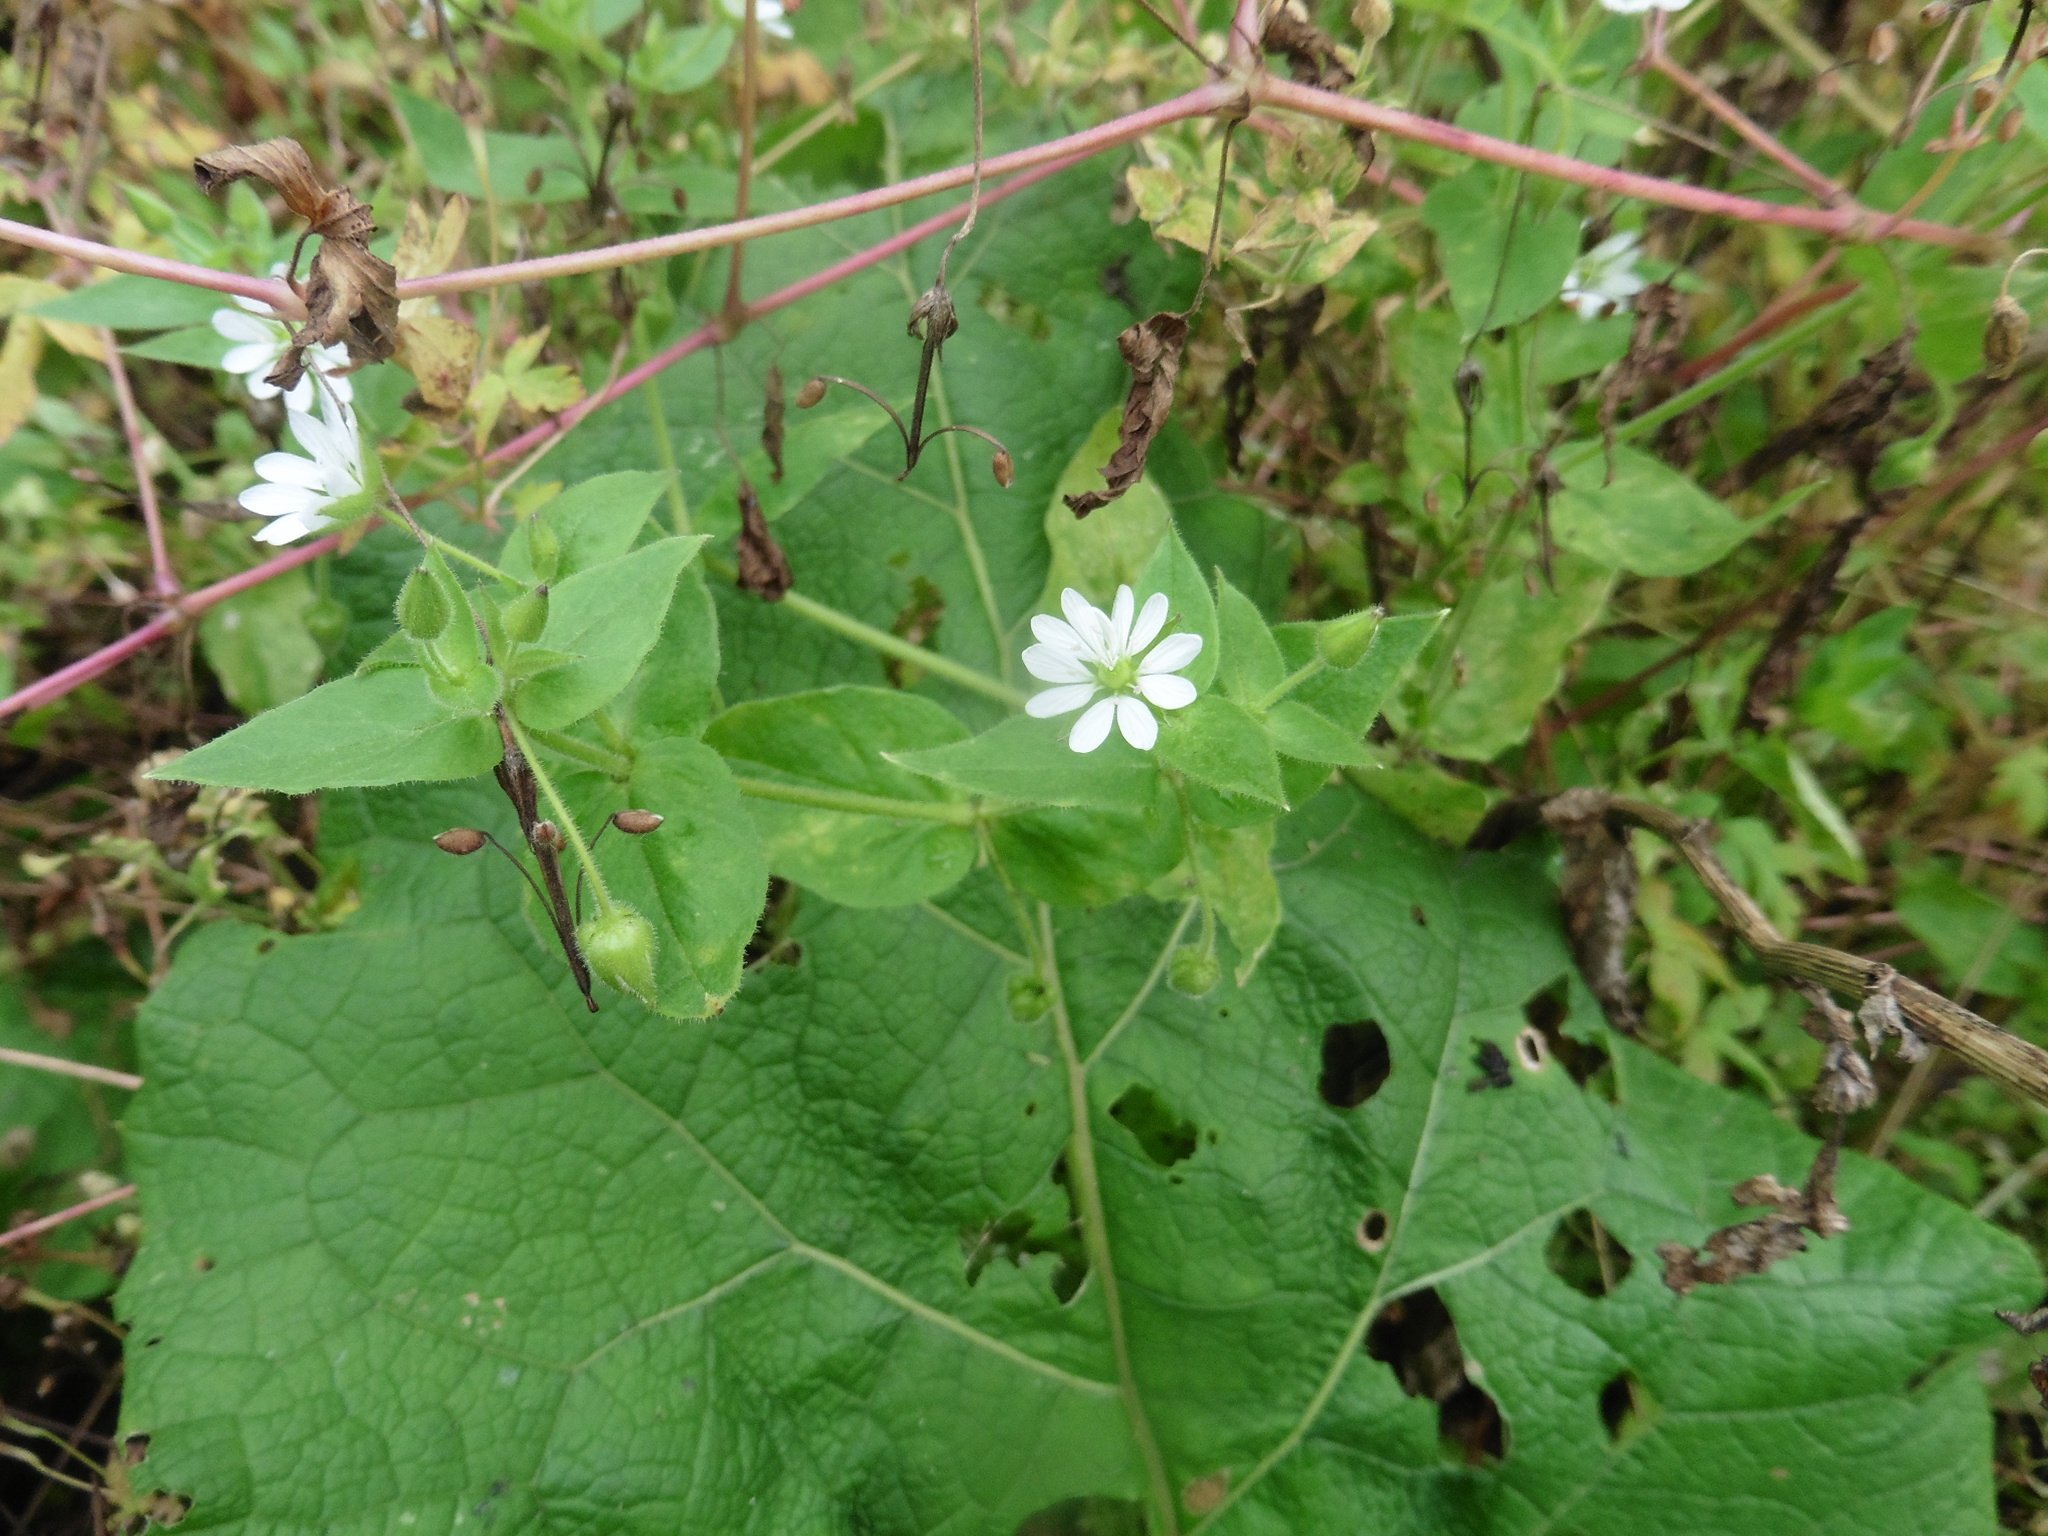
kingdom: Plantae
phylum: Tracheophyta
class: Magnoliopsida
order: Caryophyllales
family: Caryophyllaceae
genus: Stellaria
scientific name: Stellaria aquatica
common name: Water chickweed
